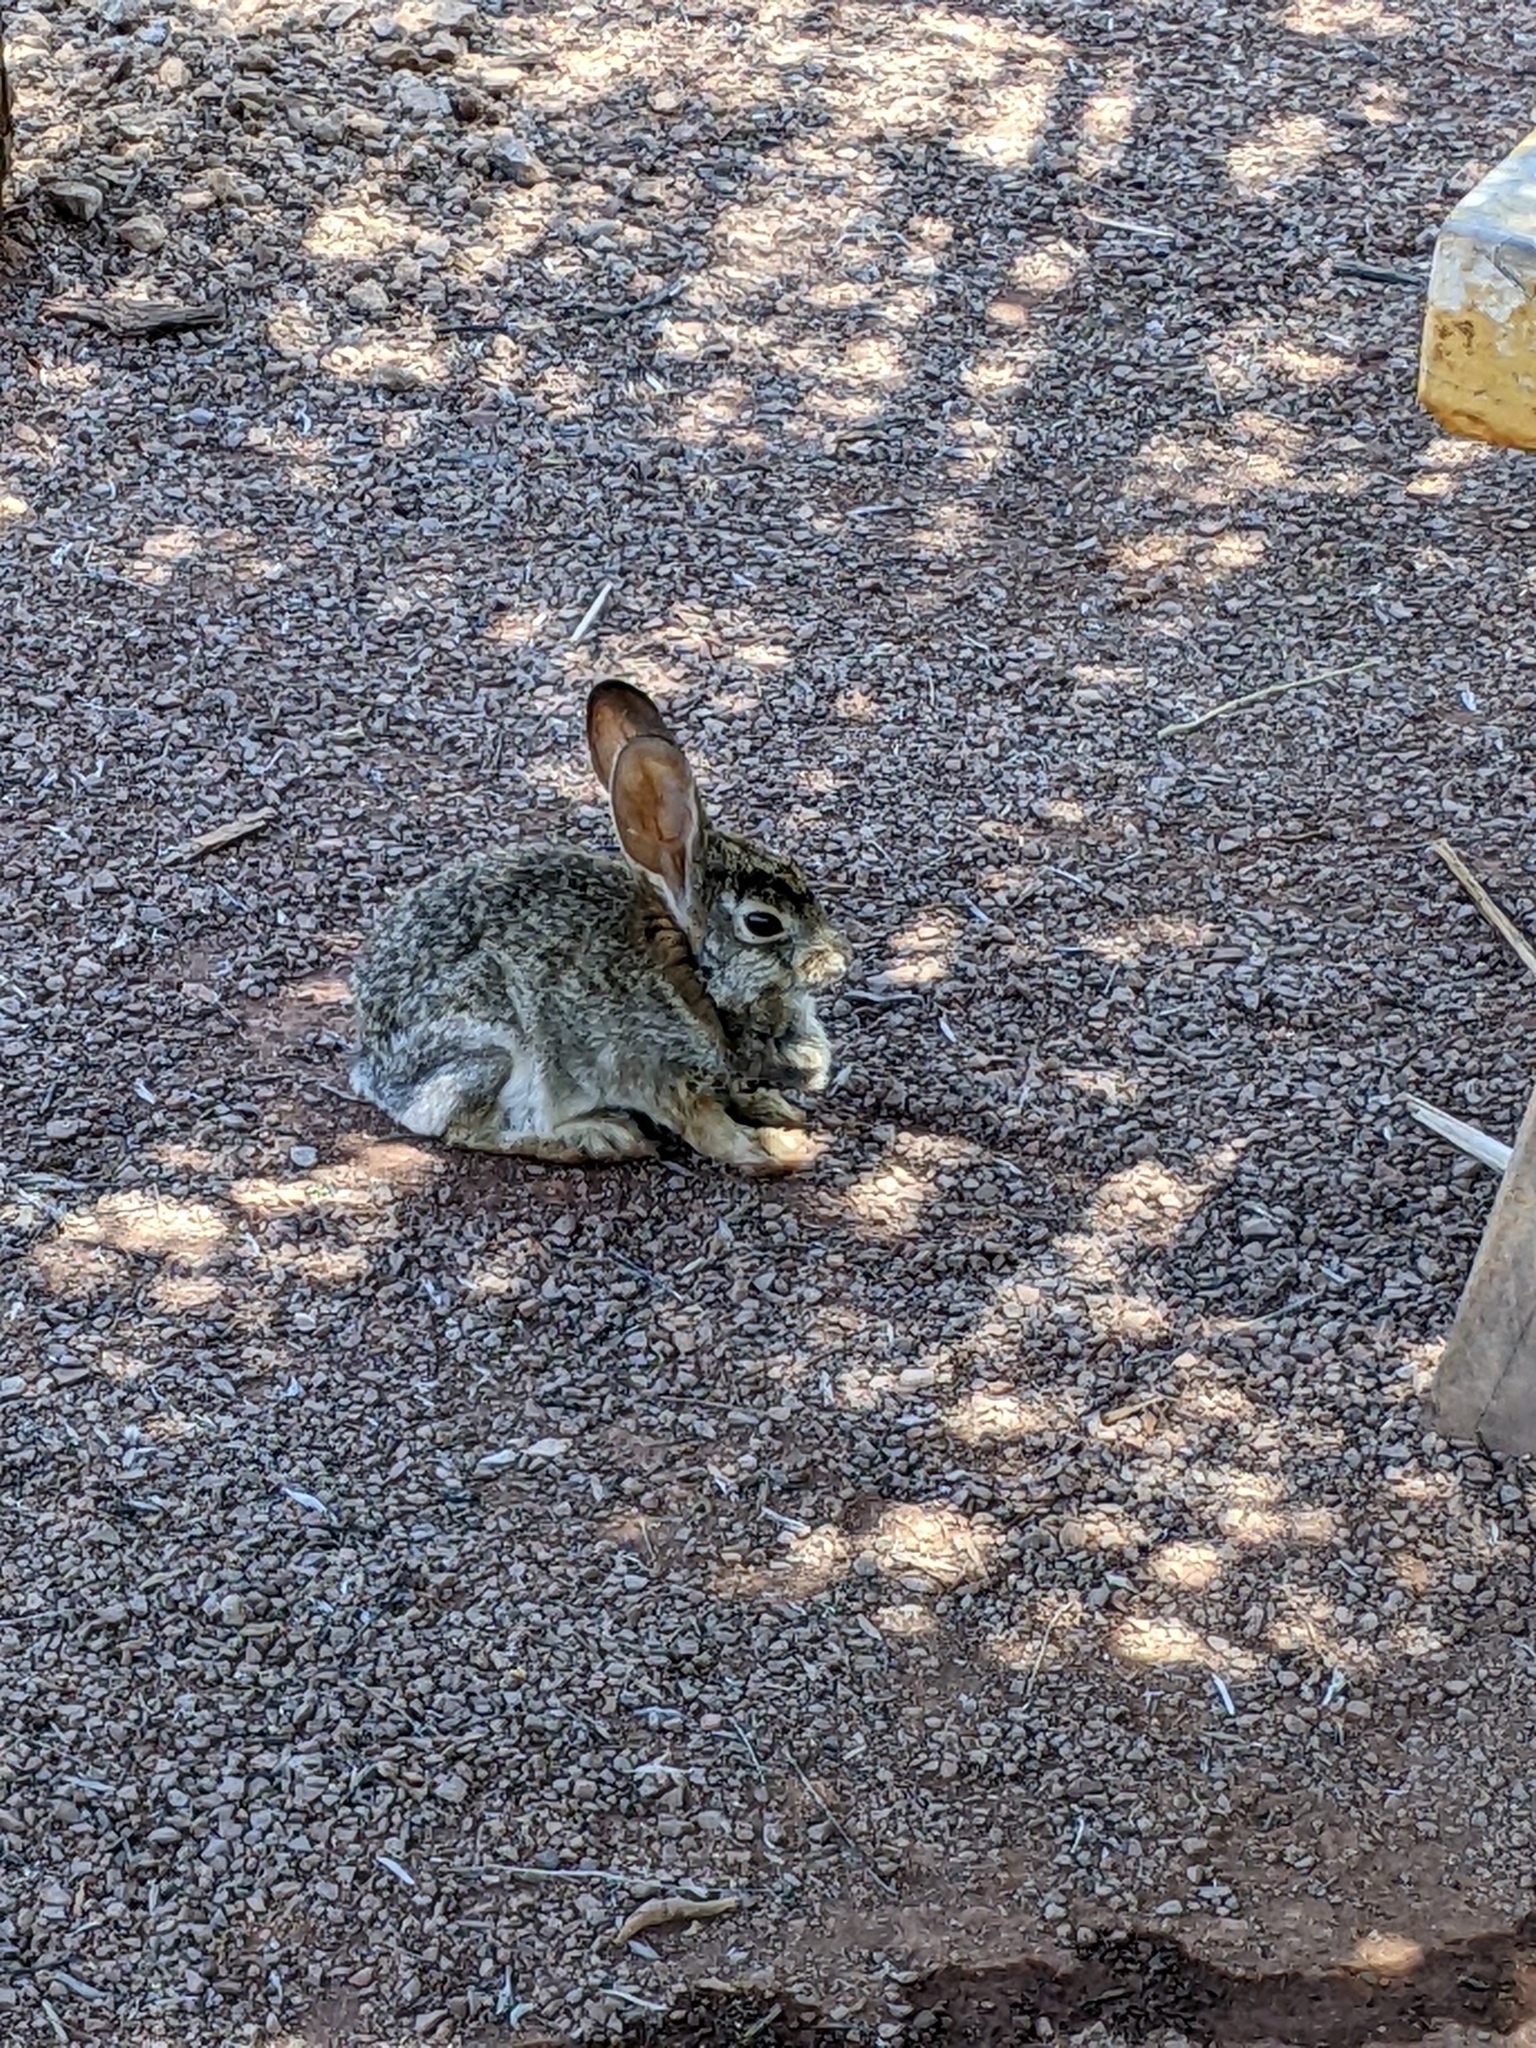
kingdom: Animalia
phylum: Chordata
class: Mammalia
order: Lagomorpha
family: Leporidae
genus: Sylvilagus
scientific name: Sylvilagus audubonii
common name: Desert cottontail
